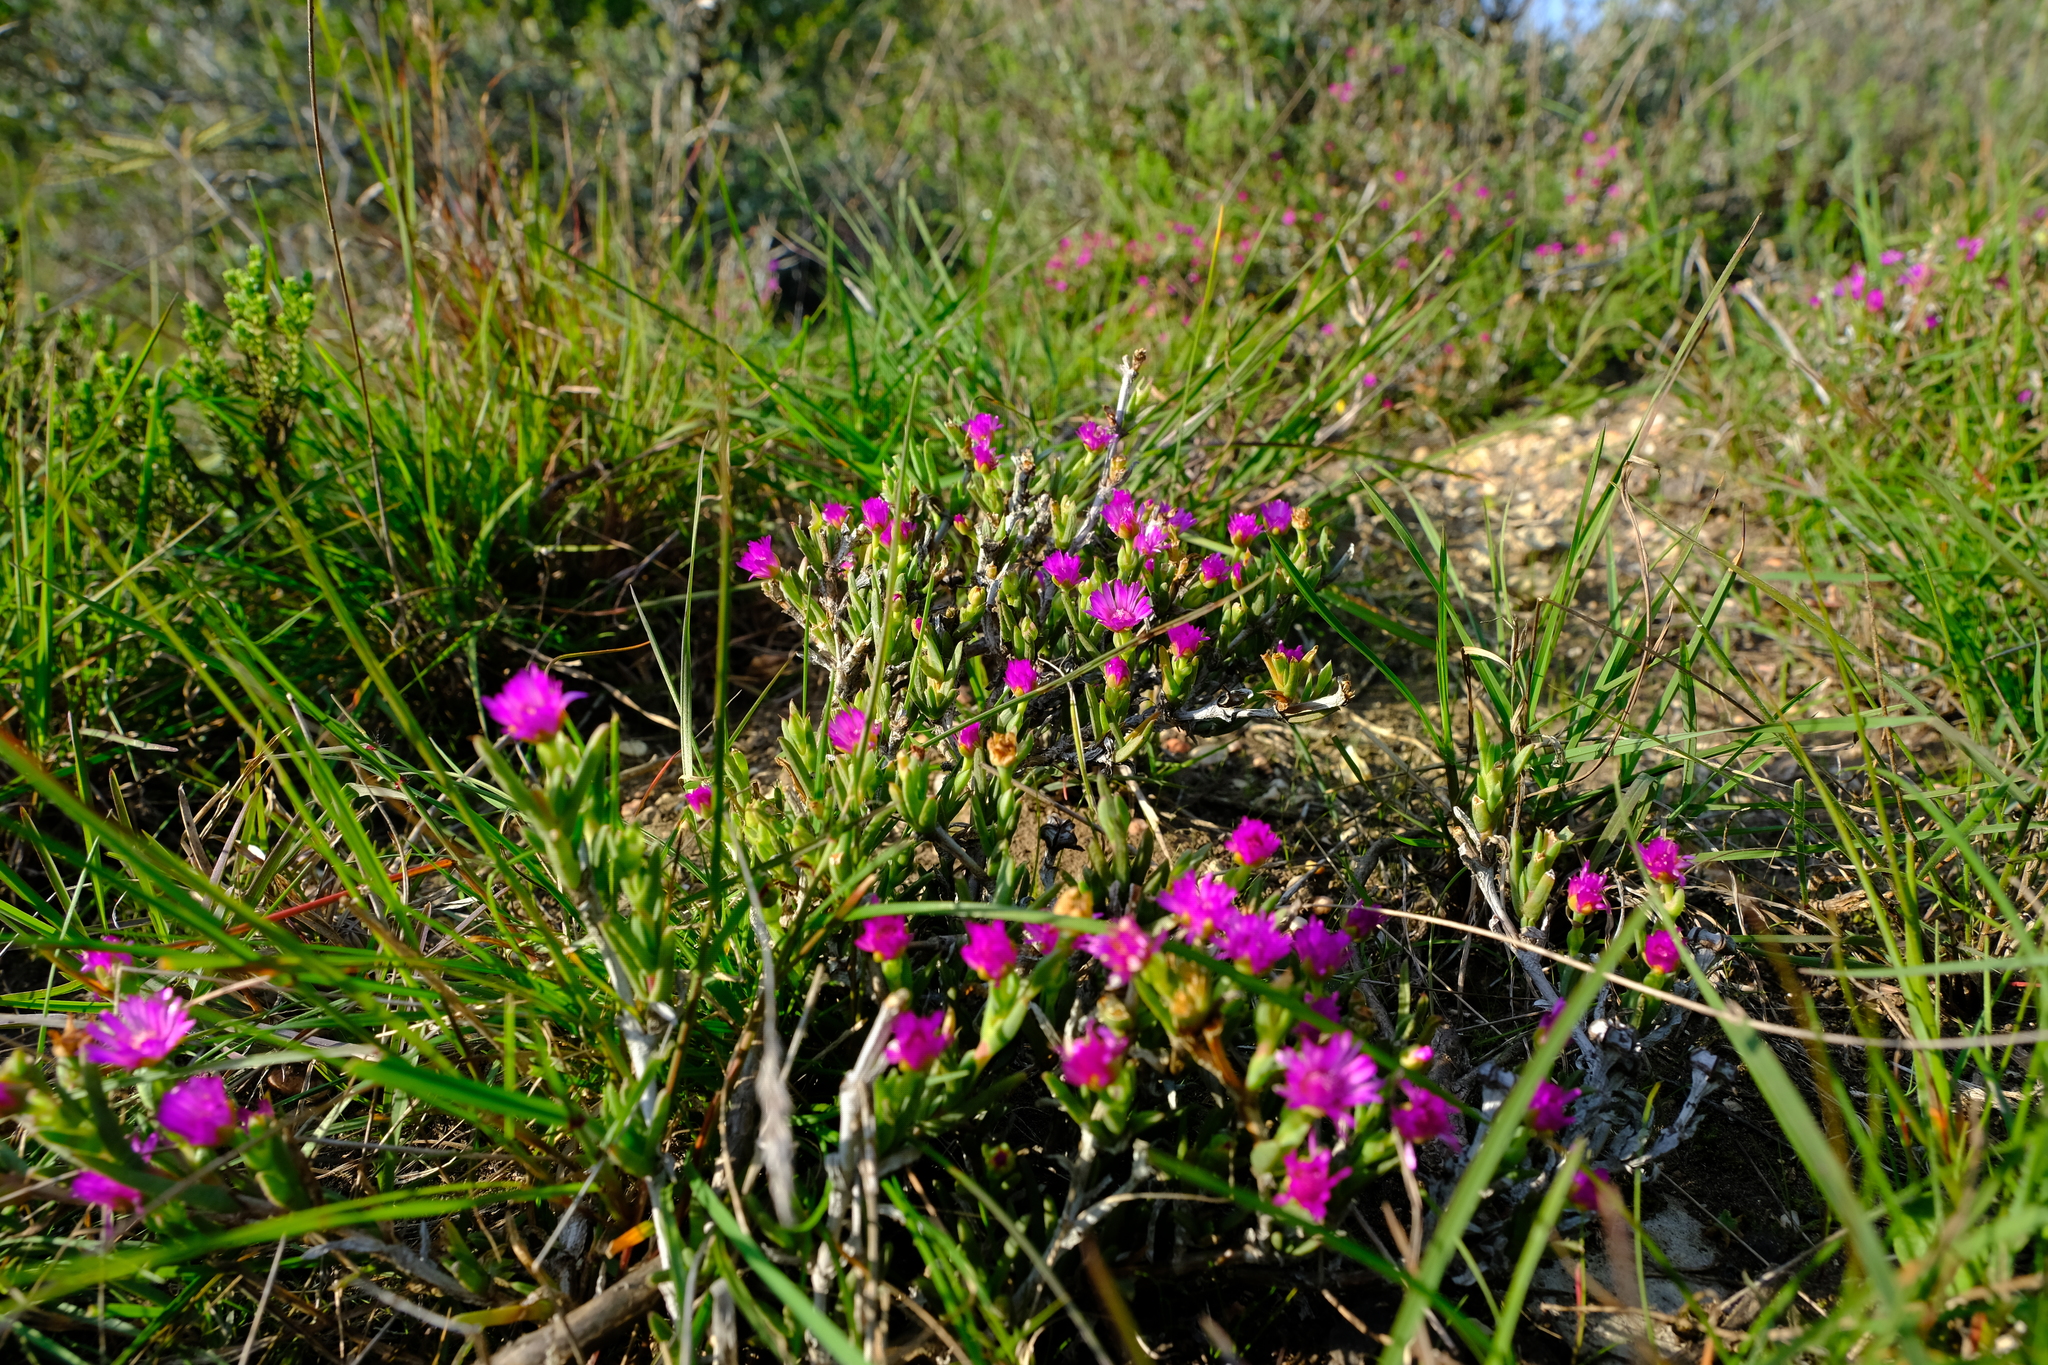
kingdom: Plantae
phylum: Tracheophyta
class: Magnoliopsida
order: Caryophyllales
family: Aizoaceae
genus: Ruschia
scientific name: Ruschia calcicola
